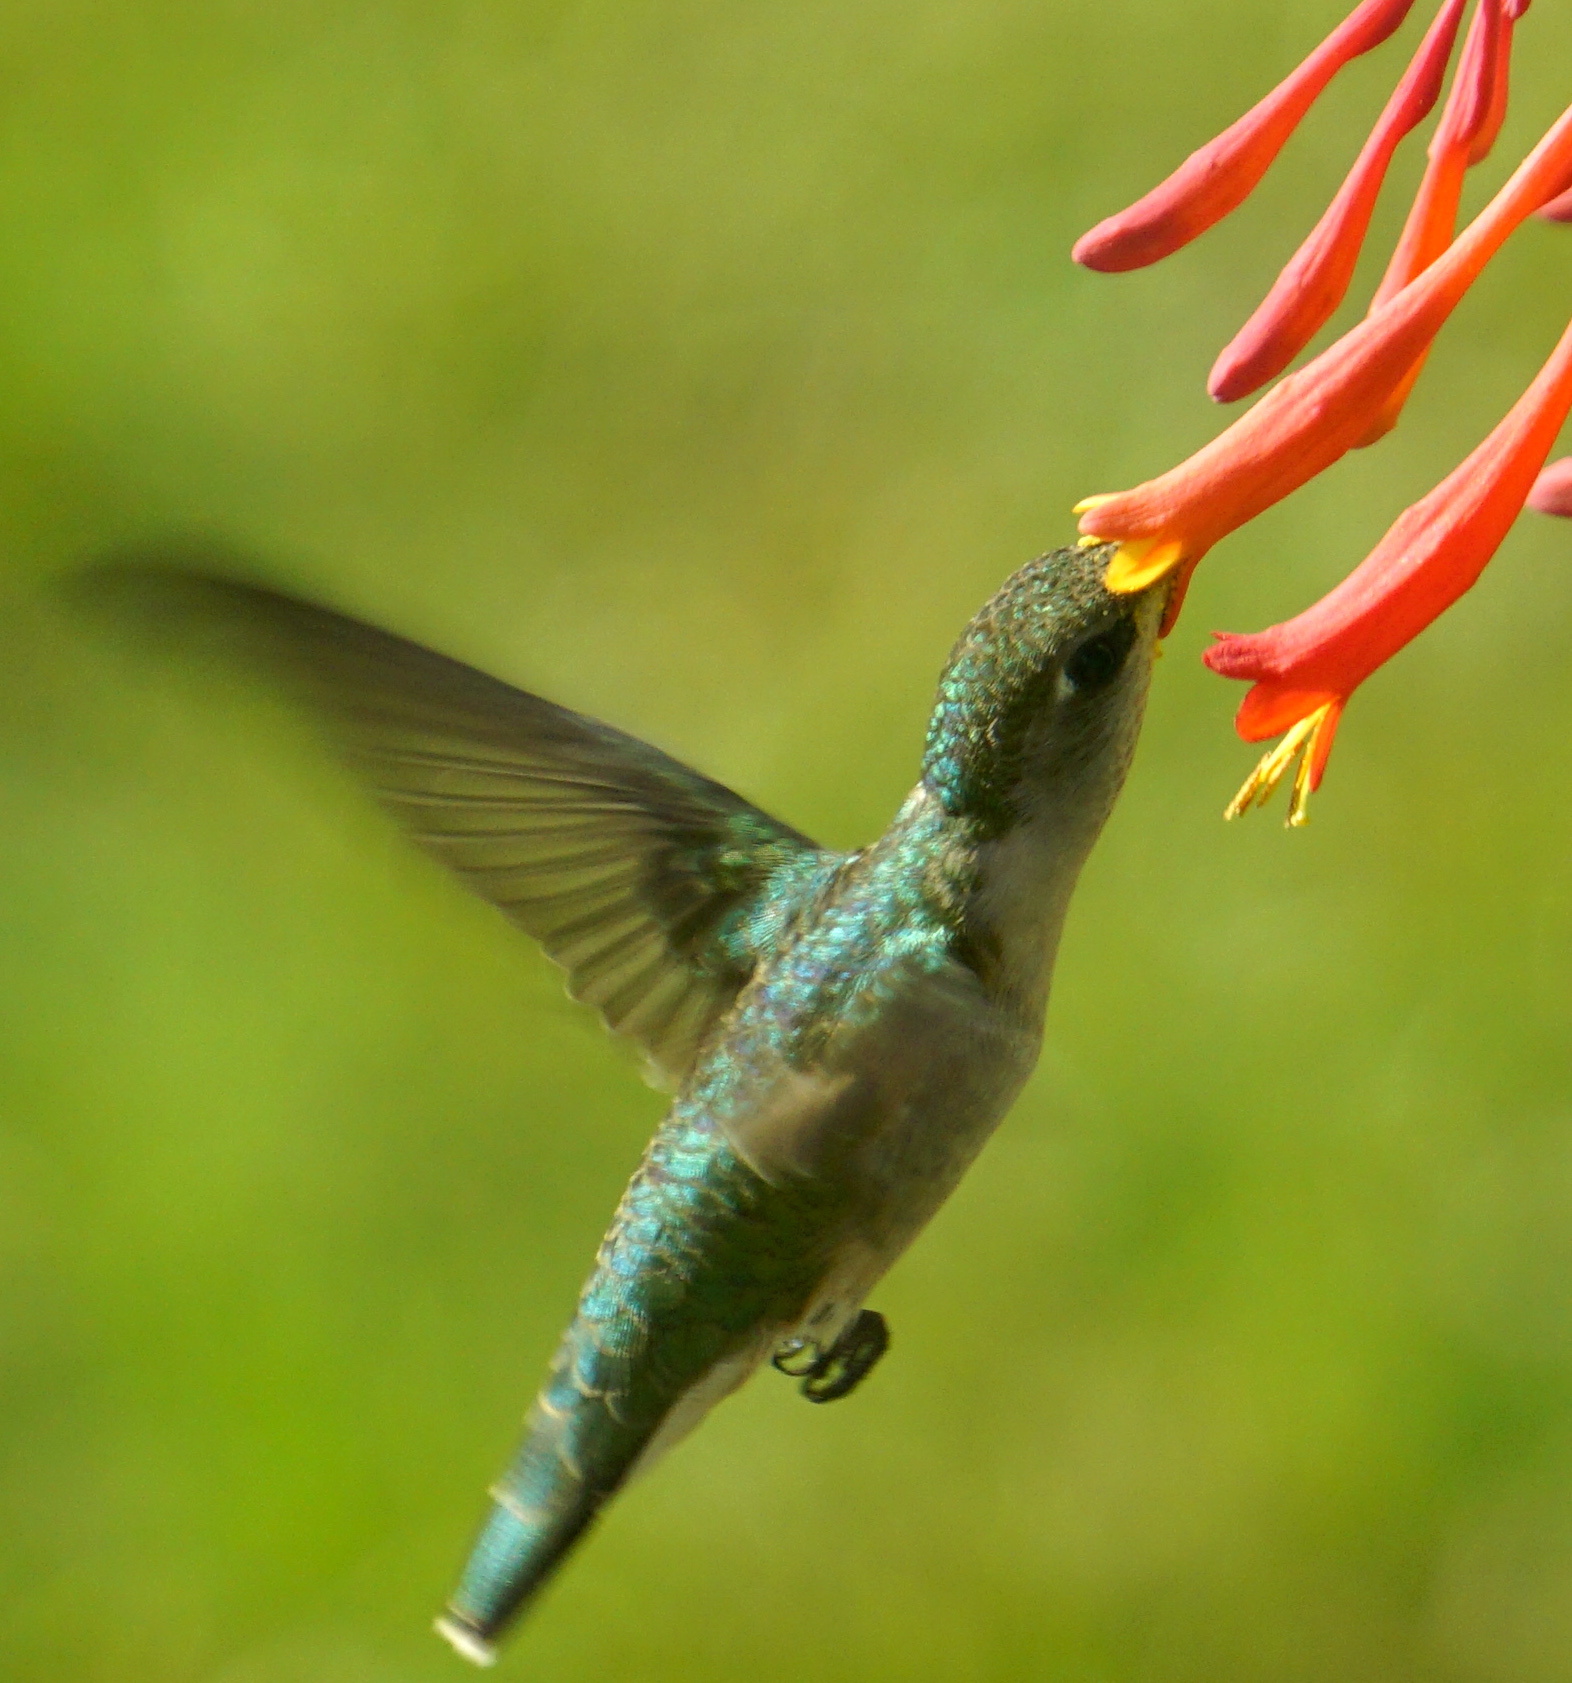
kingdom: Animalia
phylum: Chordata
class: Aves
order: Apodiformes
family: Trochilidae
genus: Archilochus
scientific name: Archilochus colubris
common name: Ruby-throated hummingbird
